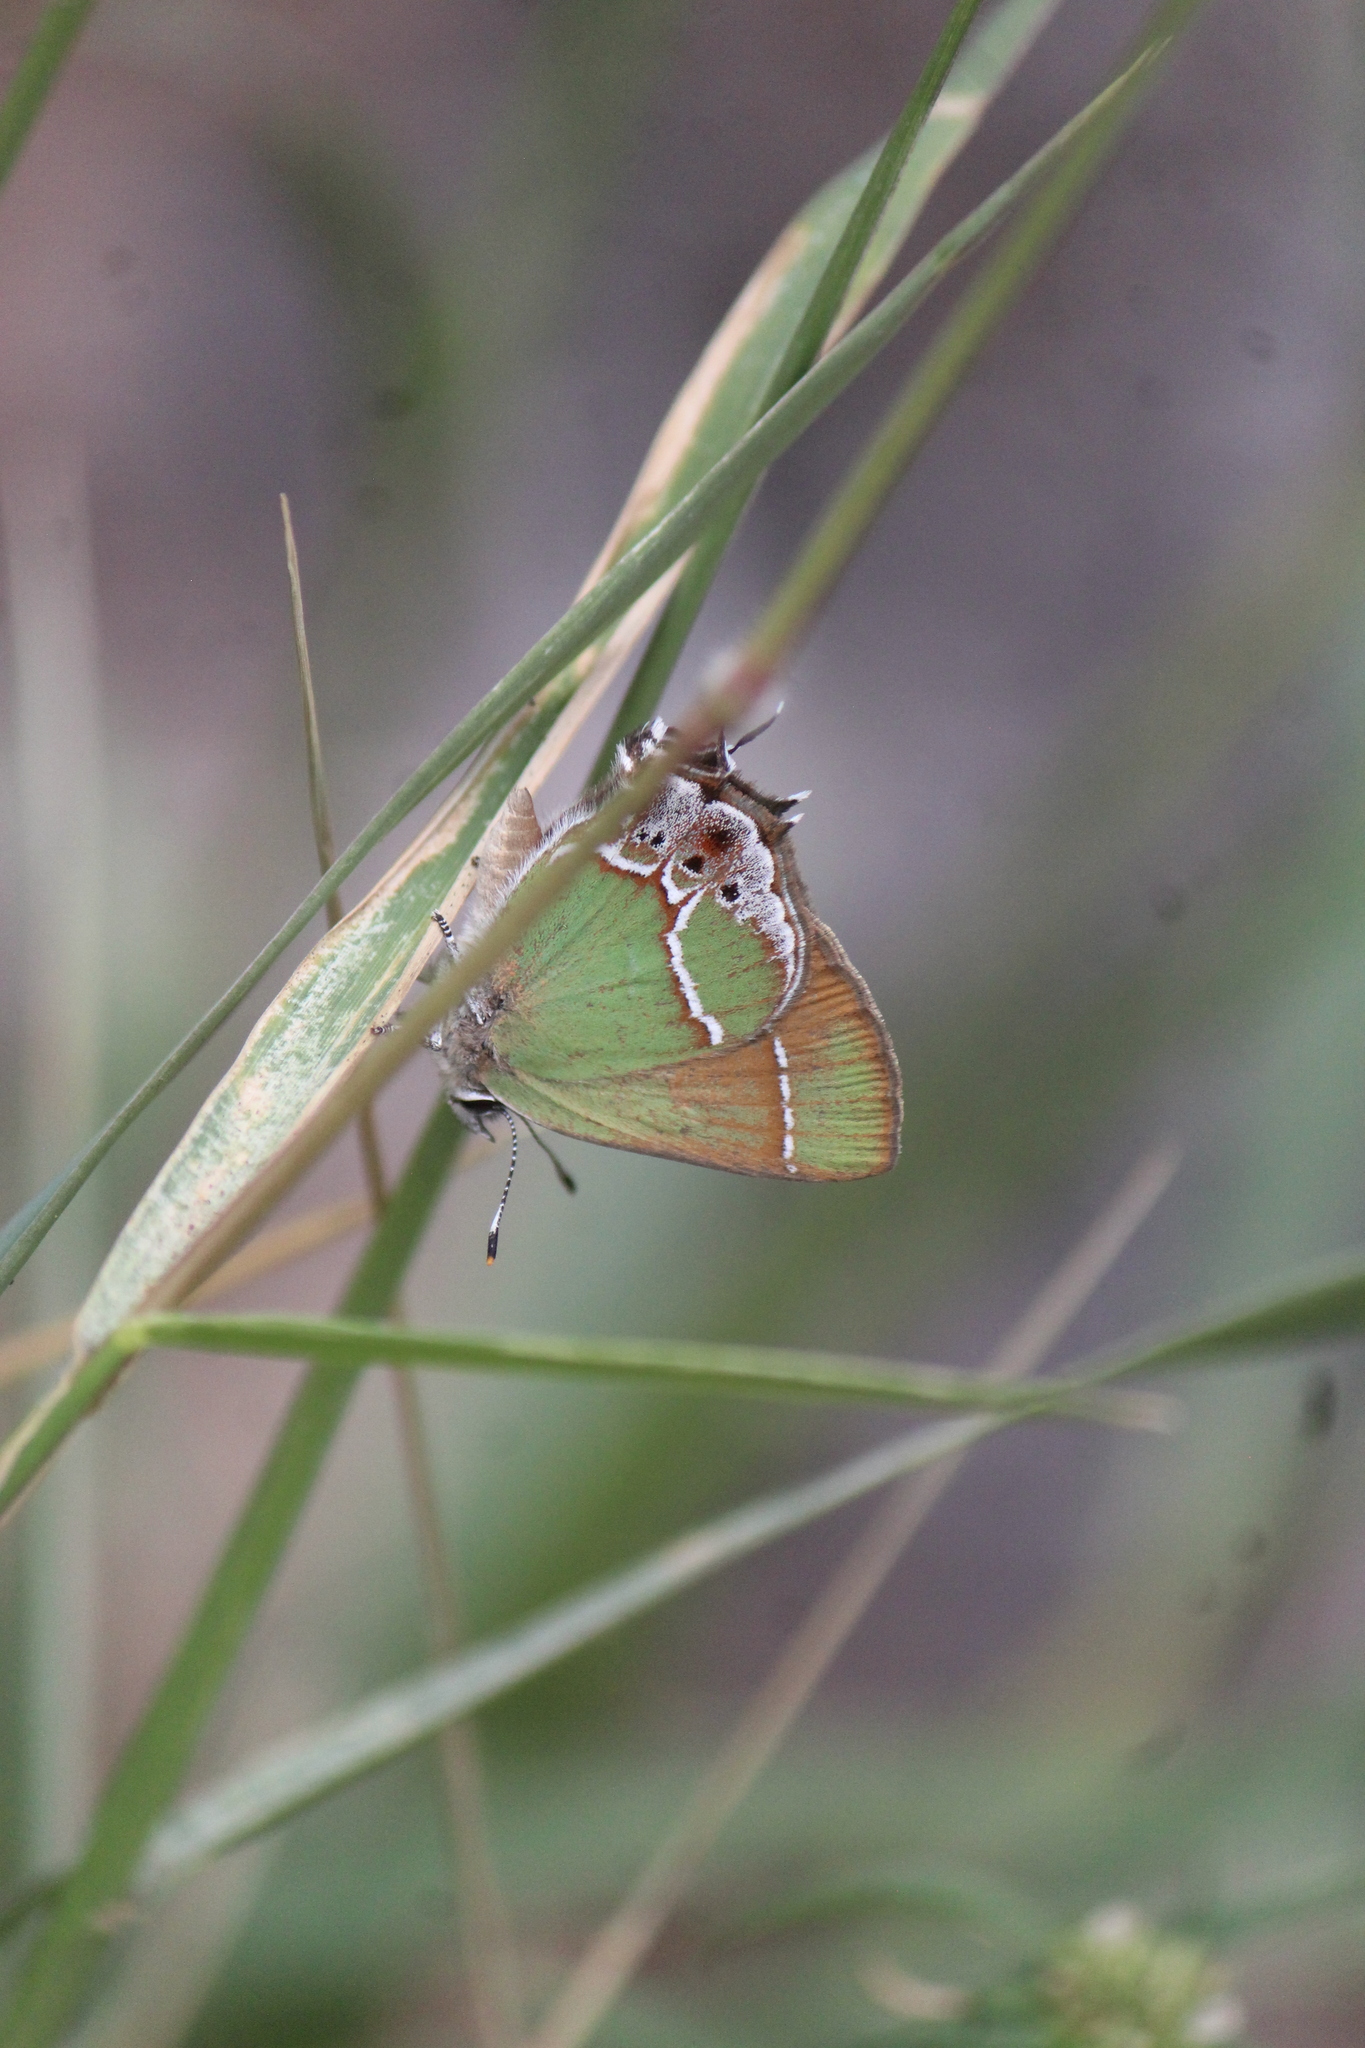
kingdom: Animalia
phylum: Arthropoda
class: Insecta
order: Lepidoptera
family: Lycaenidae
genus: Xamia
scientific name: Xamia xami
